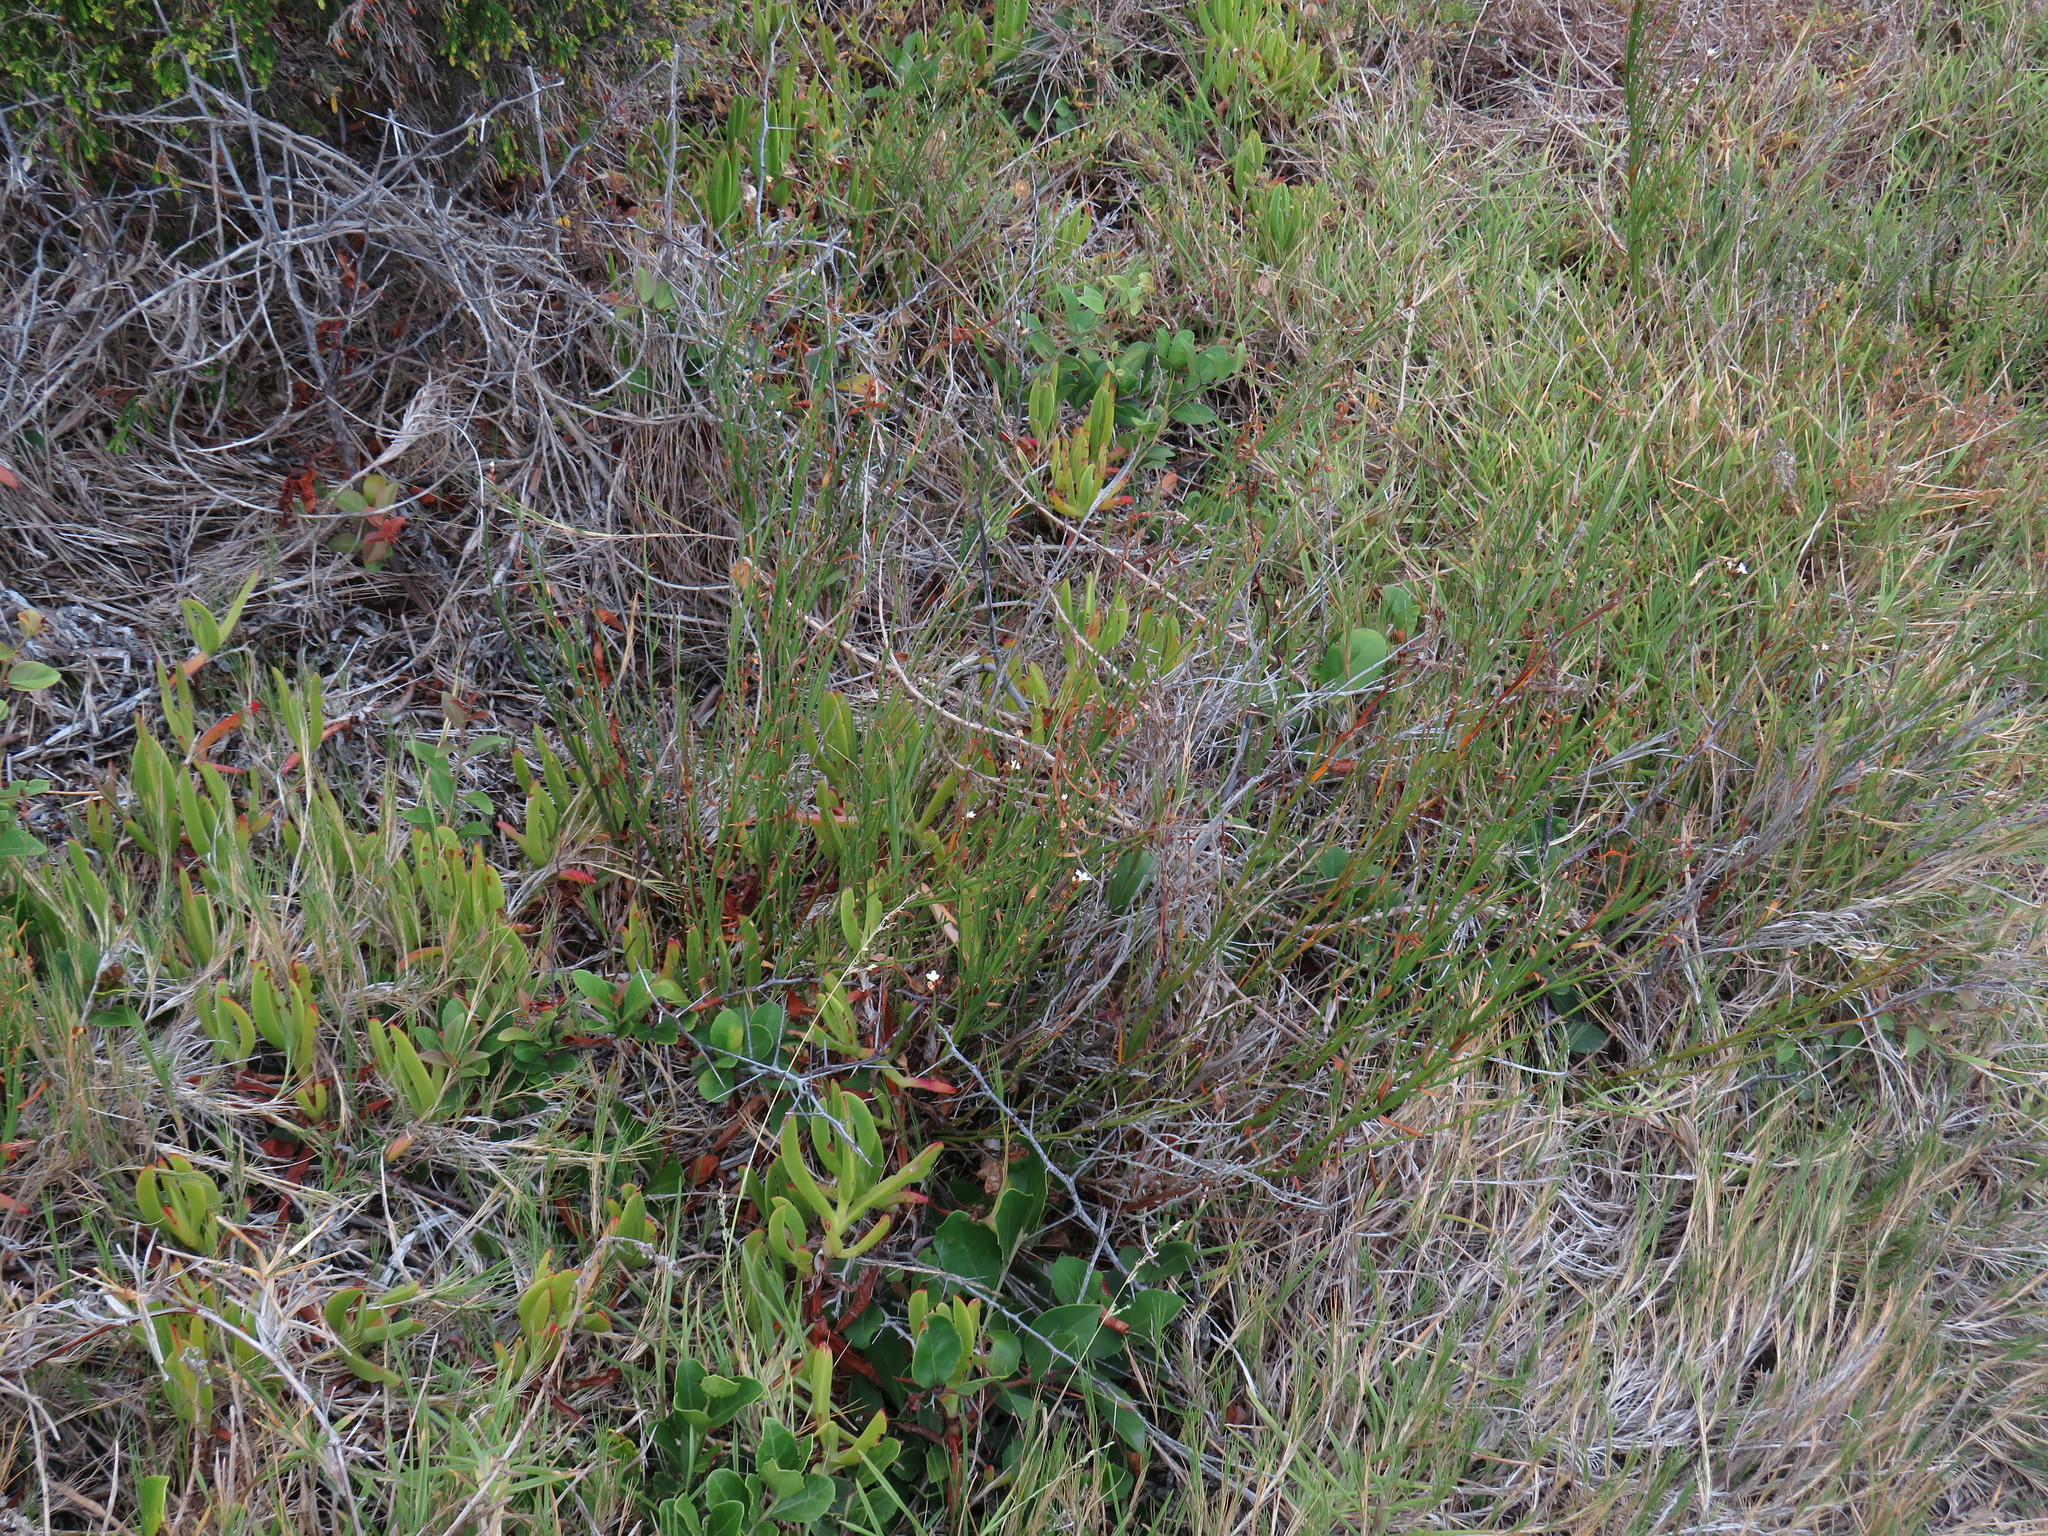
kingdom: Plantae
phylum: Tracheophyta
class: Magnoliopsida
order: Ericales
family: Primulaceae
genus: Samolus
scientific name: Samolus porosus
